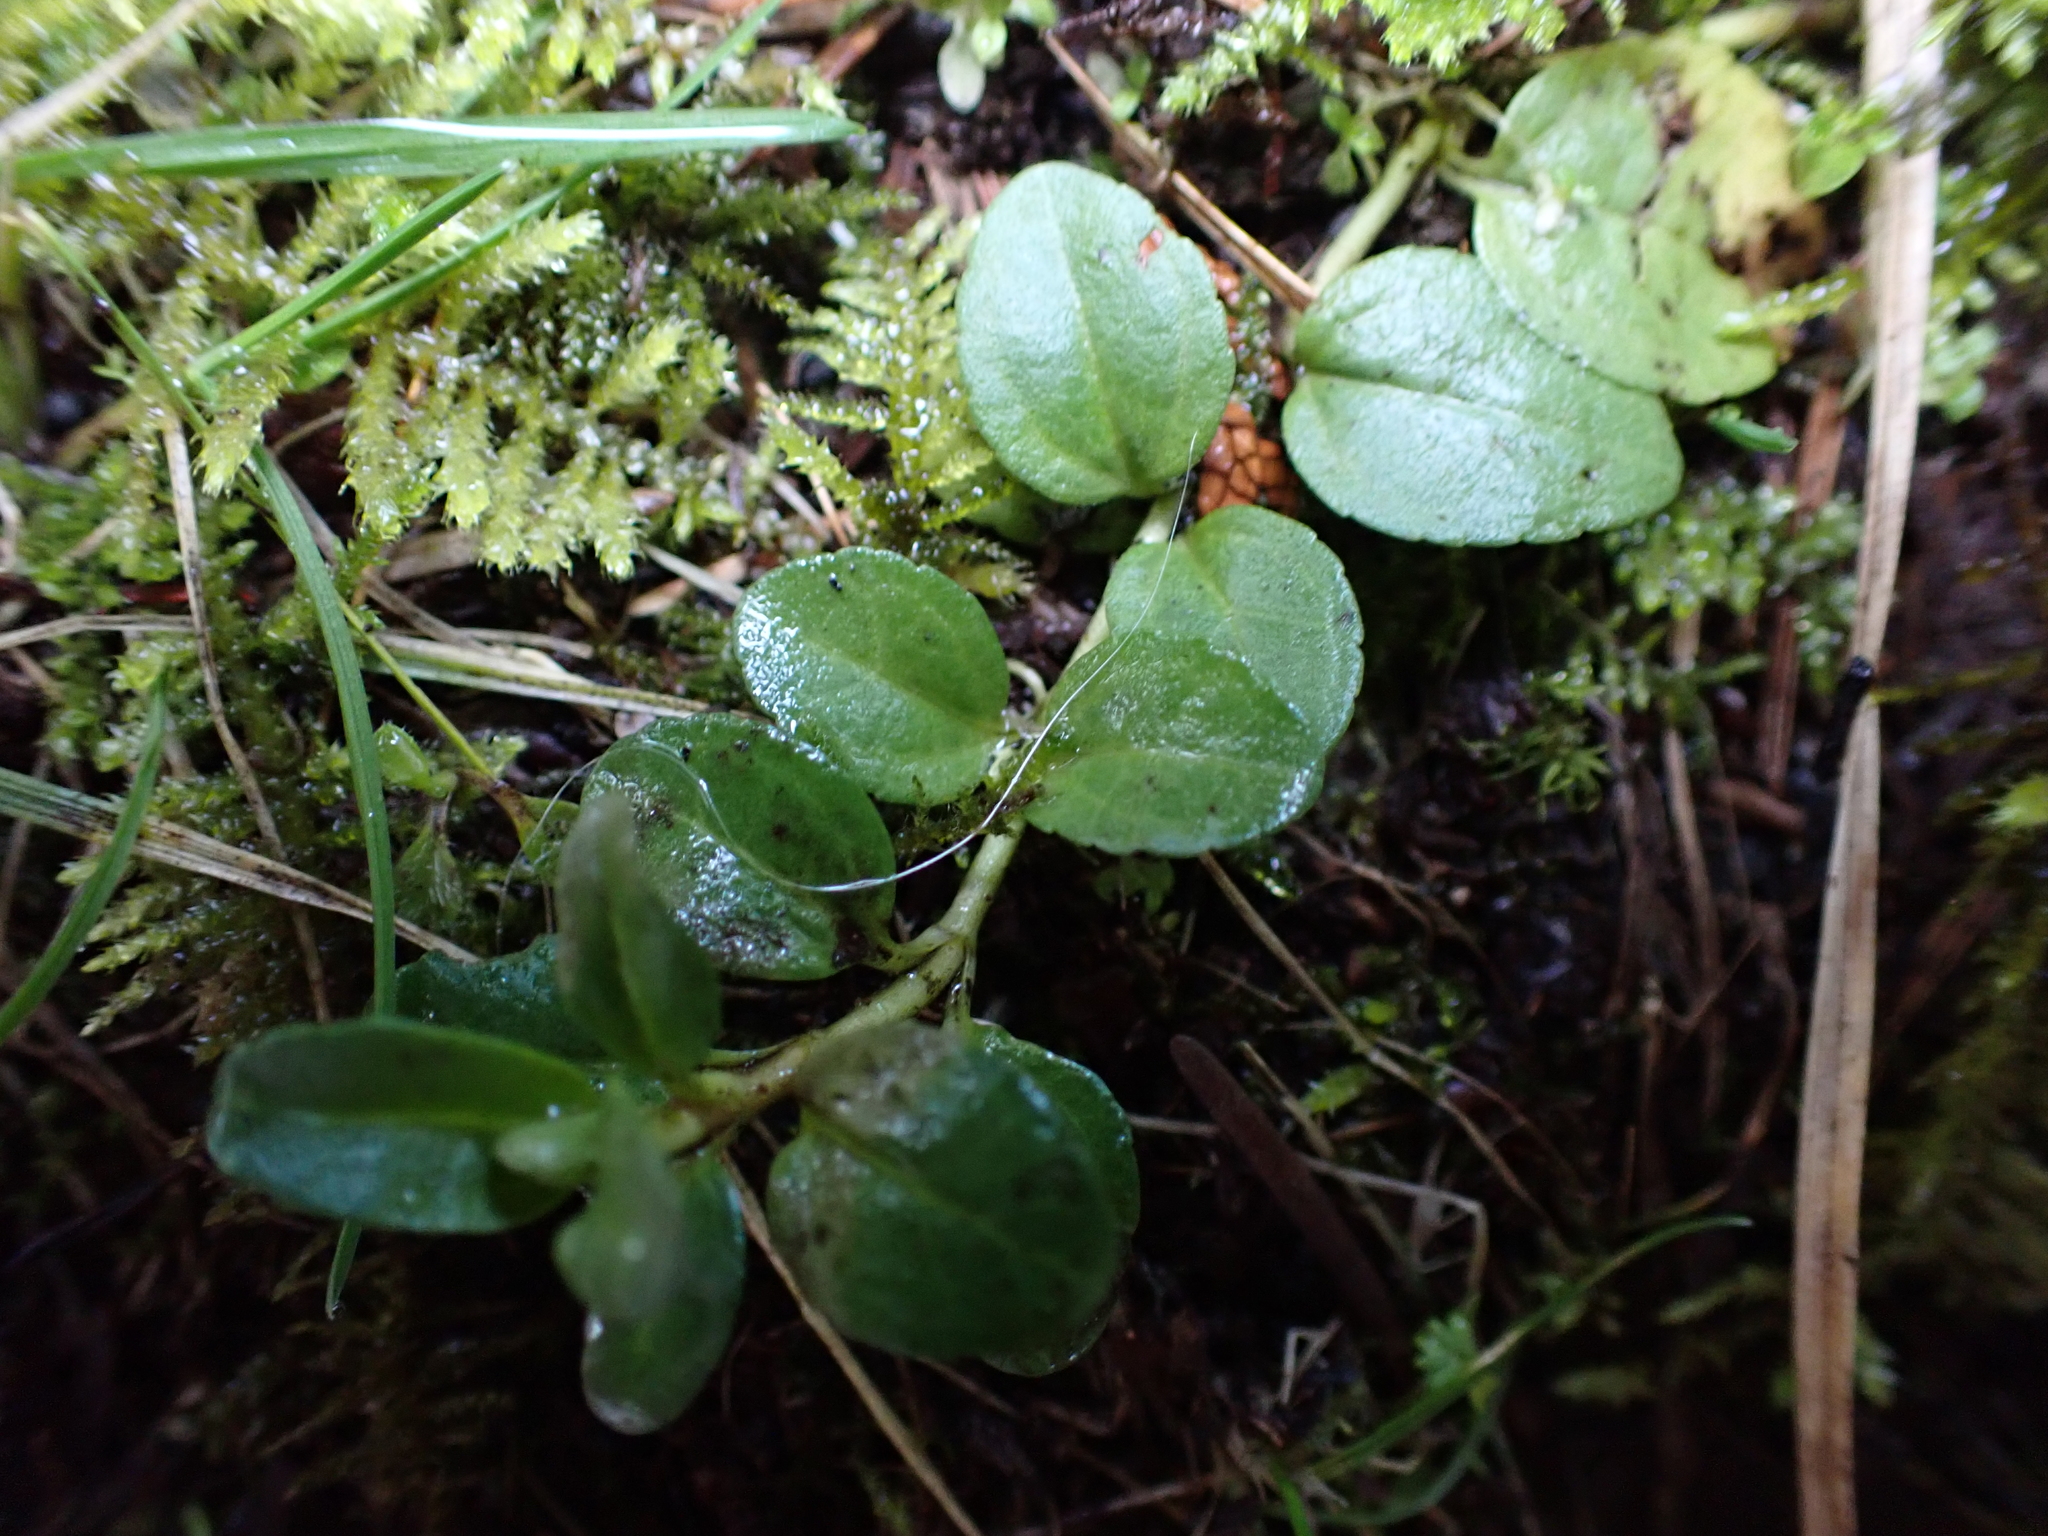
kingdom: Plantae
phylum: Tracheophyta
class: Magnoliopsida
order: Lamiales
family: Plantaginaceae
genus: Veronica
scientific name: Veronica serpyllifolia
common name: Thyme-leaved speedwell
